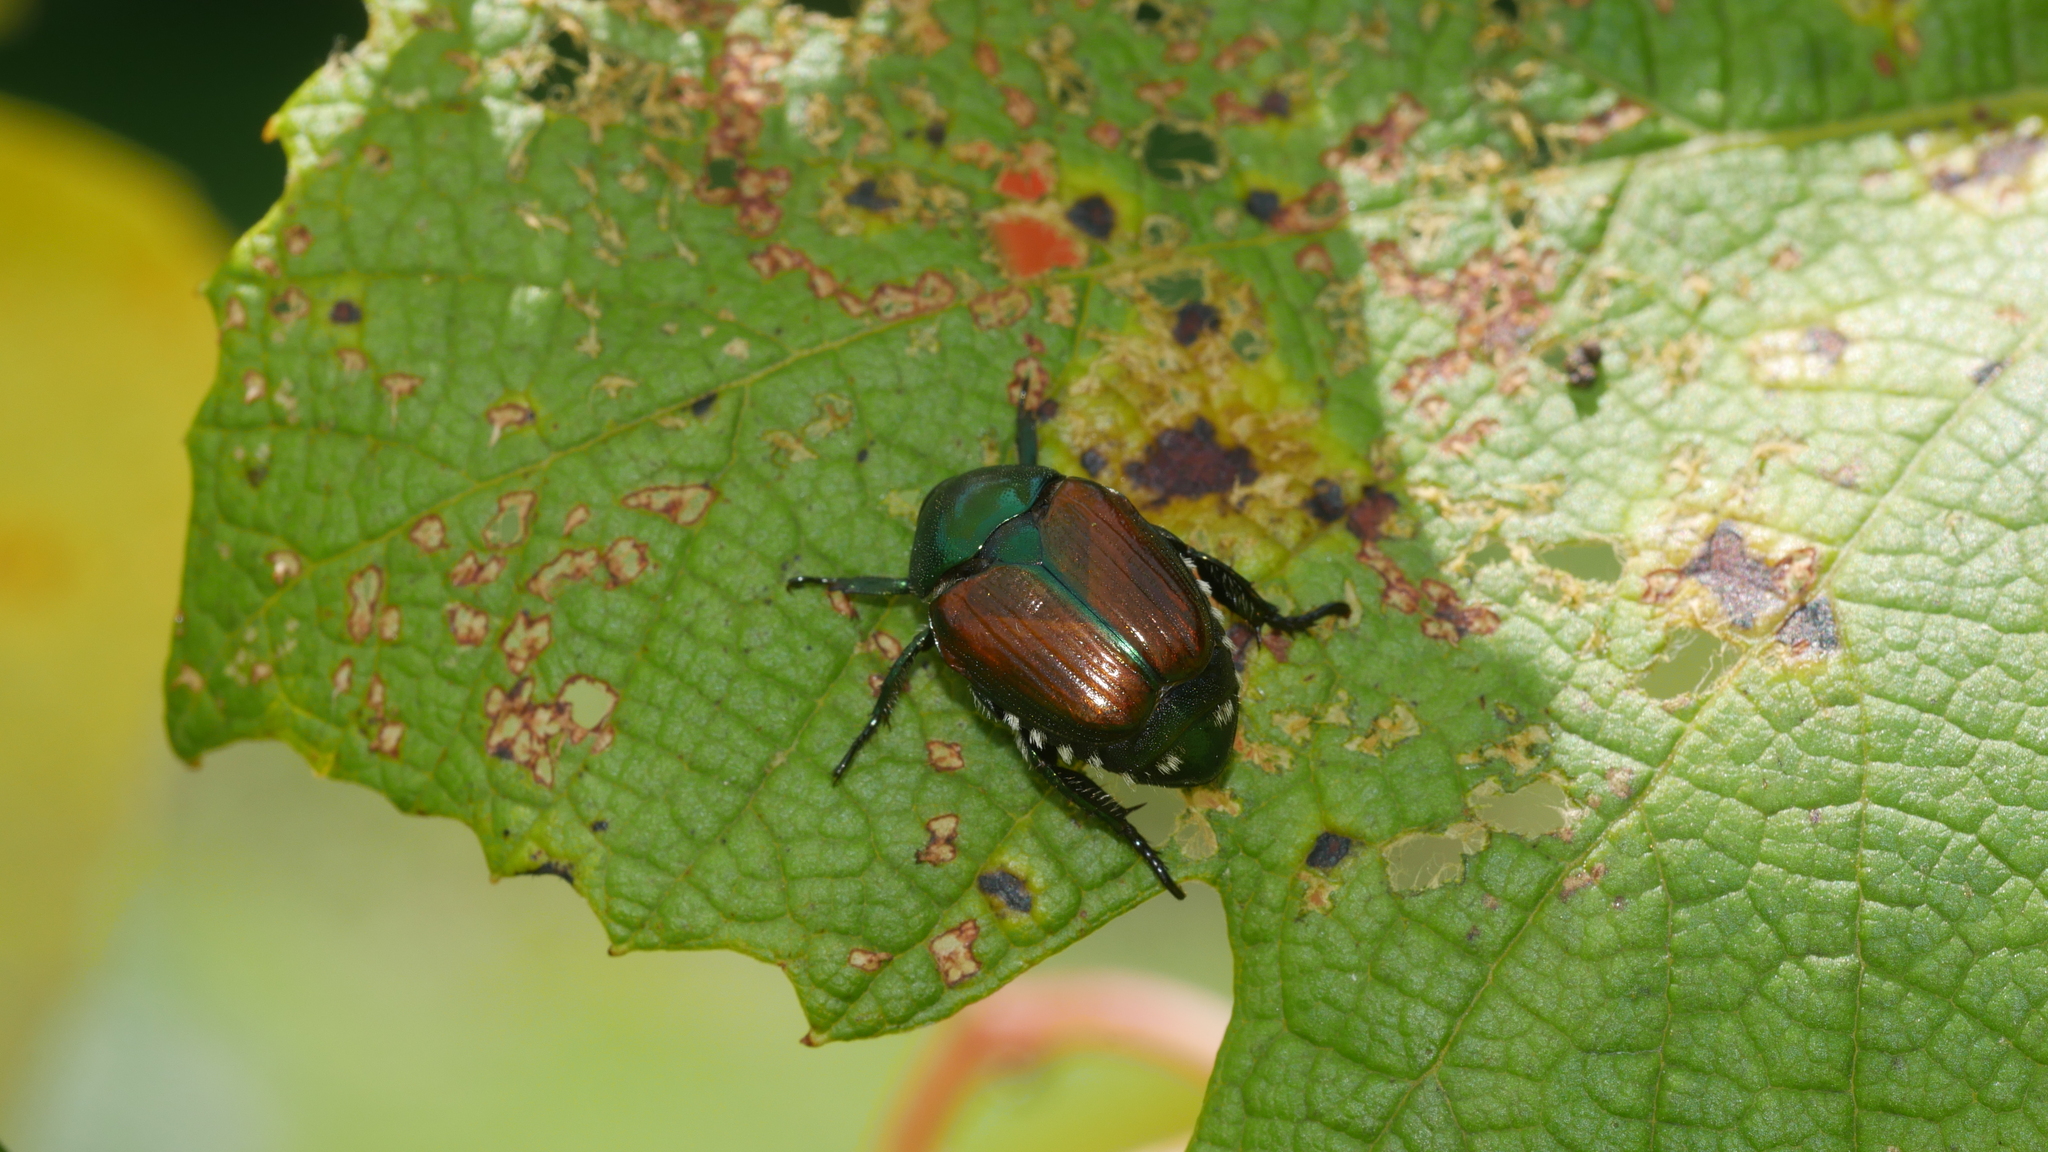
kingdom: Animalia
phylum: Arthropoda
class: Insecta
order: Coleoptera
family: Scarabaeidae
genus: Popillia
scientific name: Popillia japonica
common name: Japanese beetle
